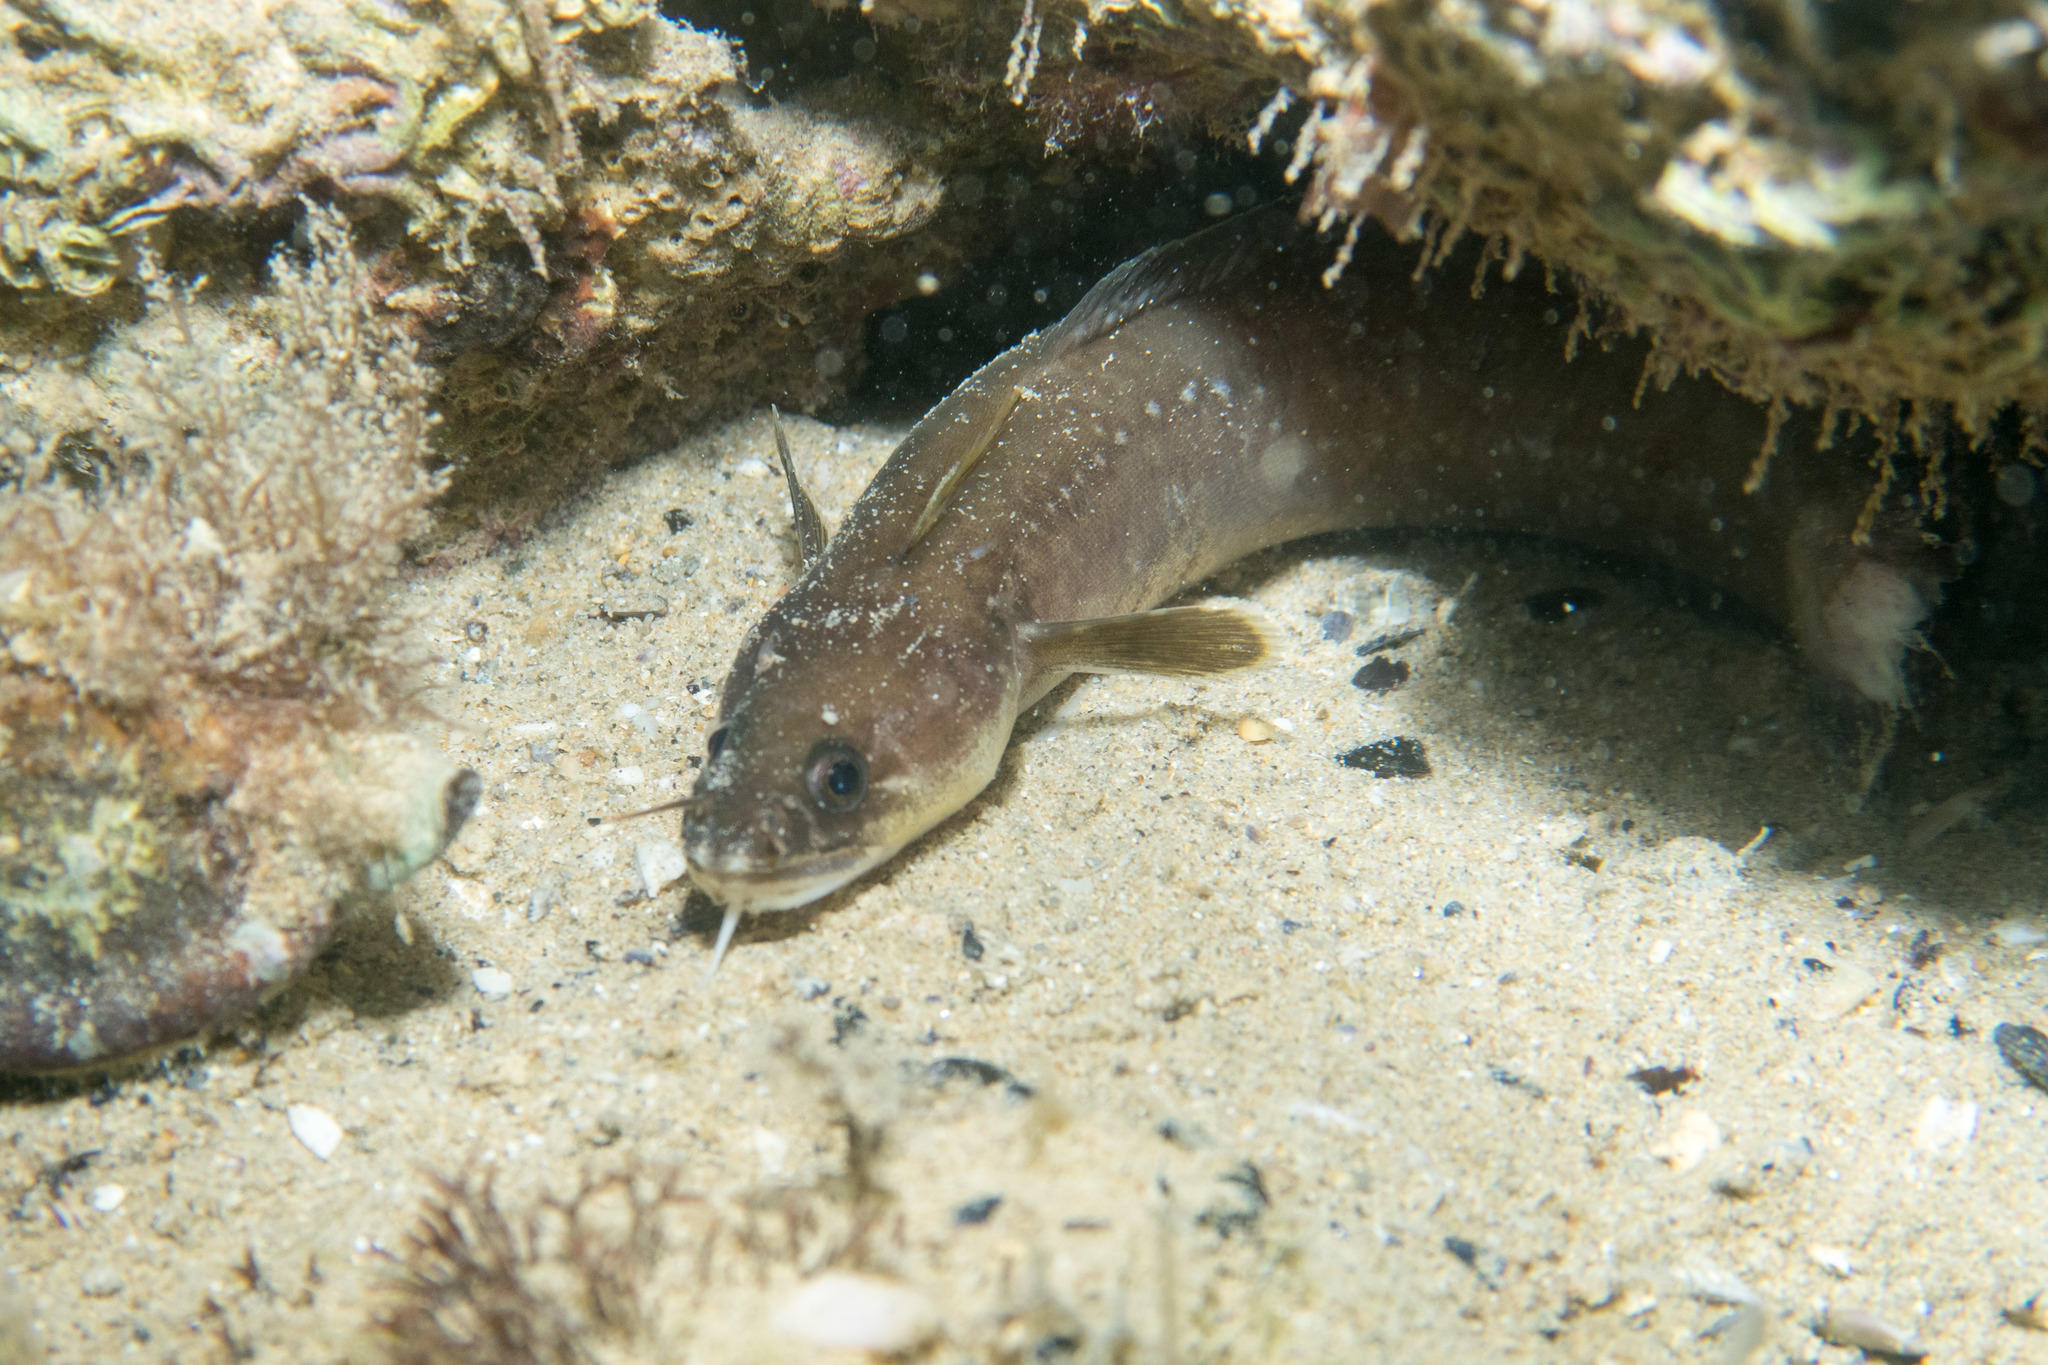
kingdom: Animalia
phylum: Chordata
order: Gadiformes
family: Lotidae
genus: Gaidropsarus
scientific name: Gaidropsarus mediterraneus
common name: Shore rockling
